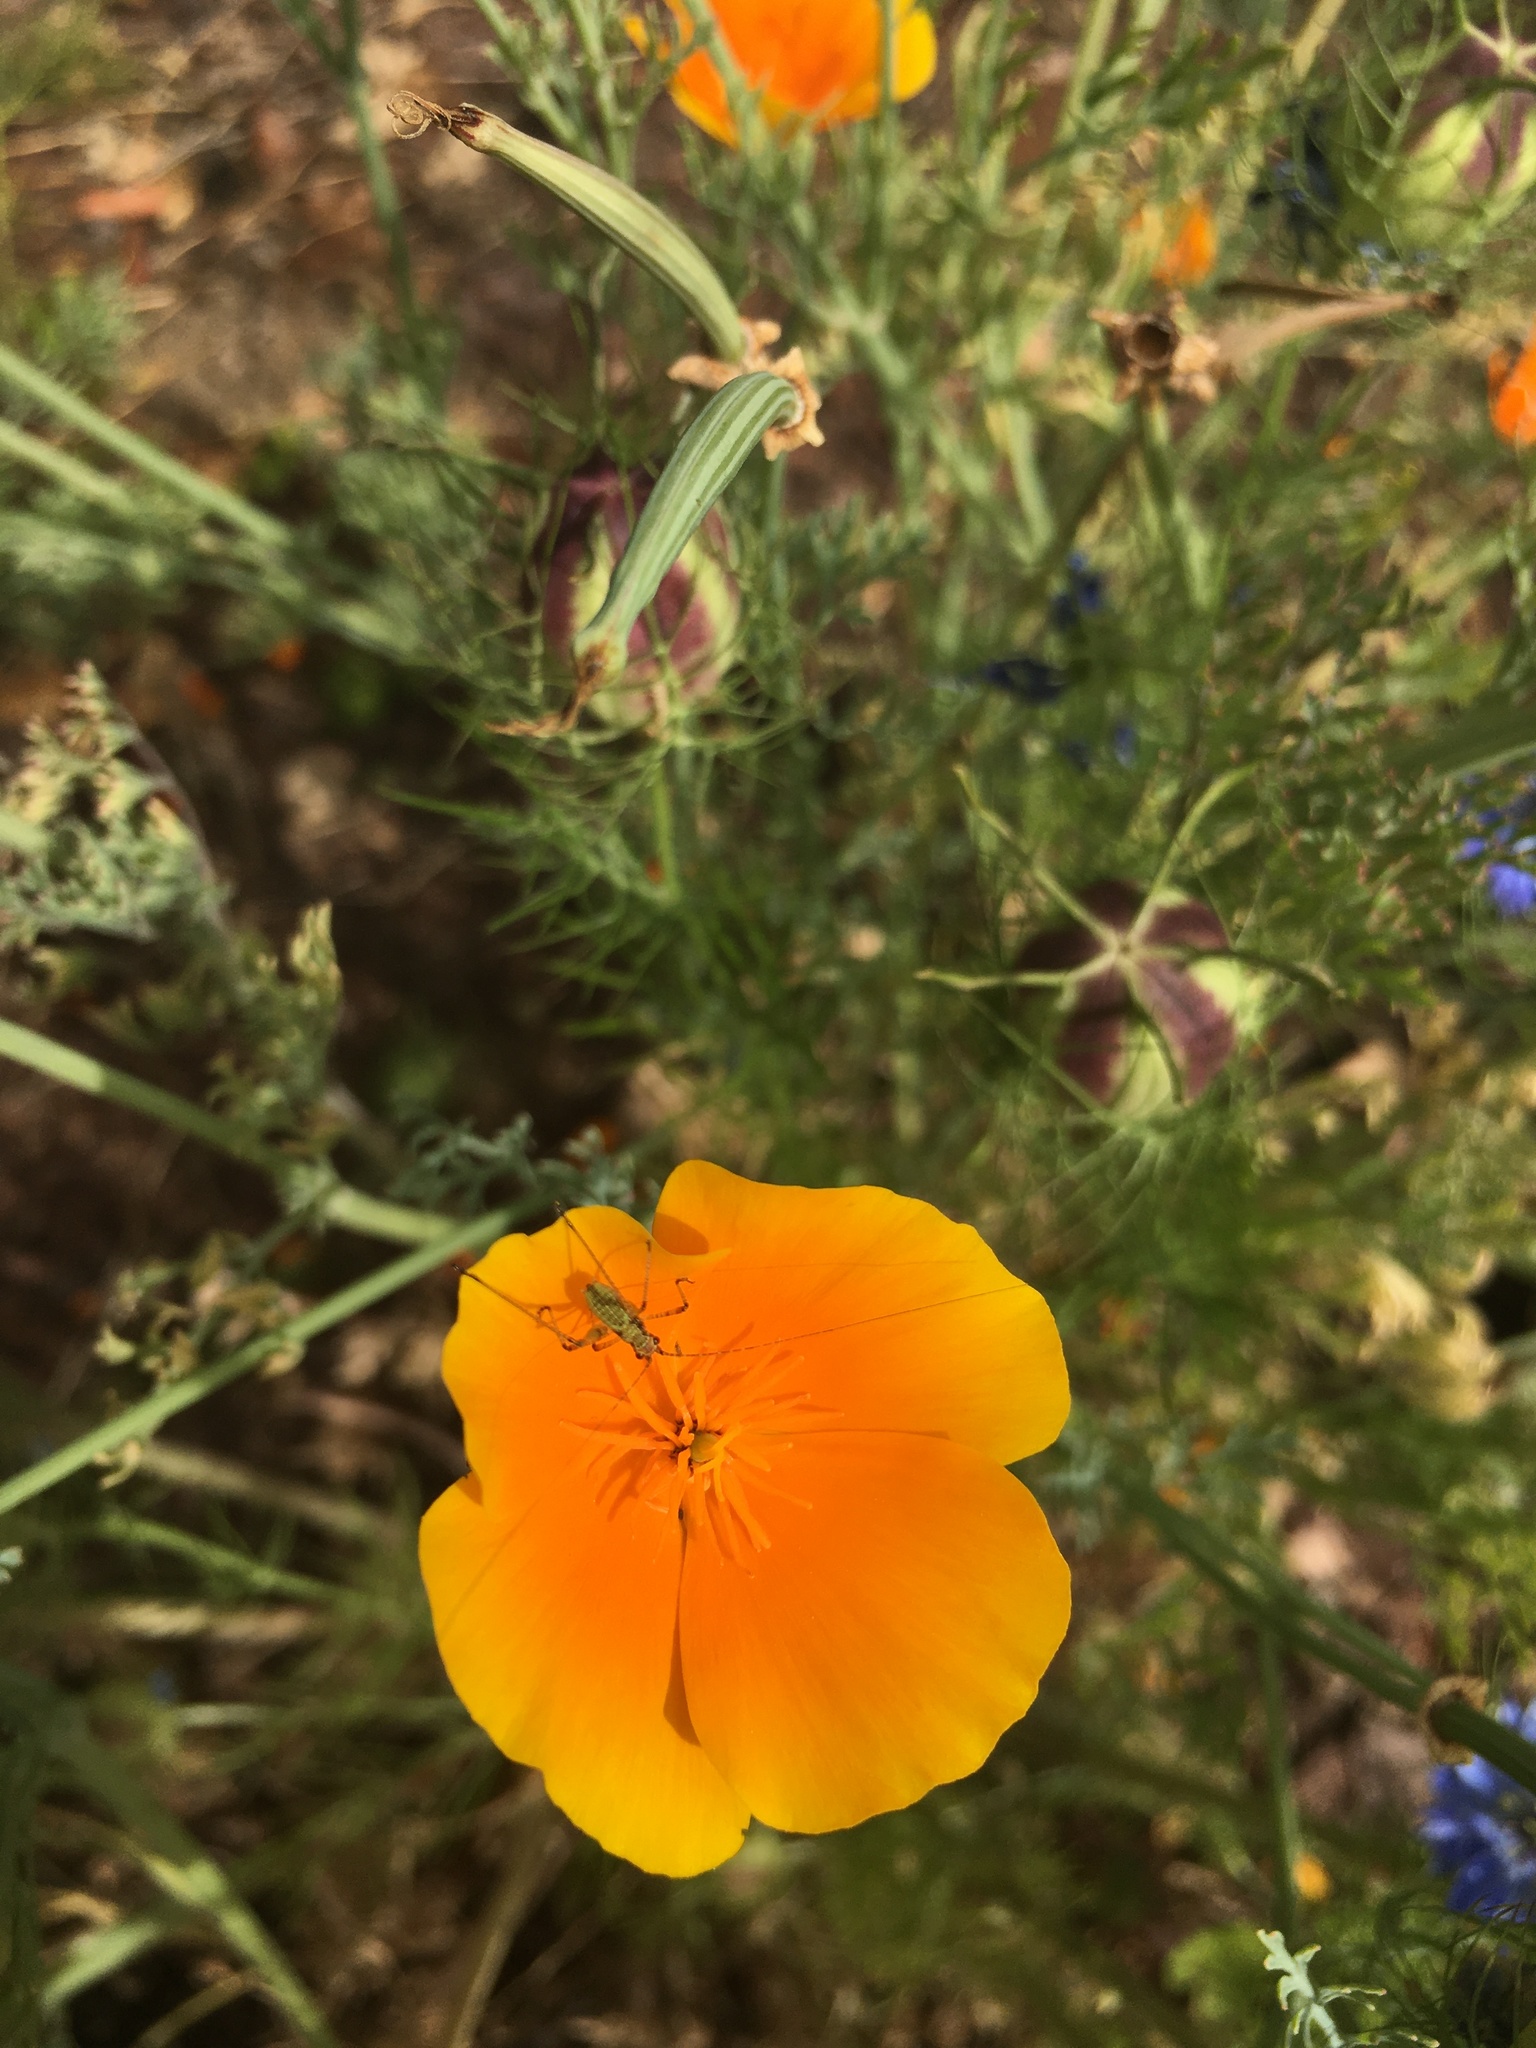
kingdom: Animalia
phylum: Arthropoda
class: Insecta
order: Orthoptera
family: Tettigoniidae
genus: Phaneroptera
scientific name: Phaneroptera nana
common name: Southern sickle bush-cricket
